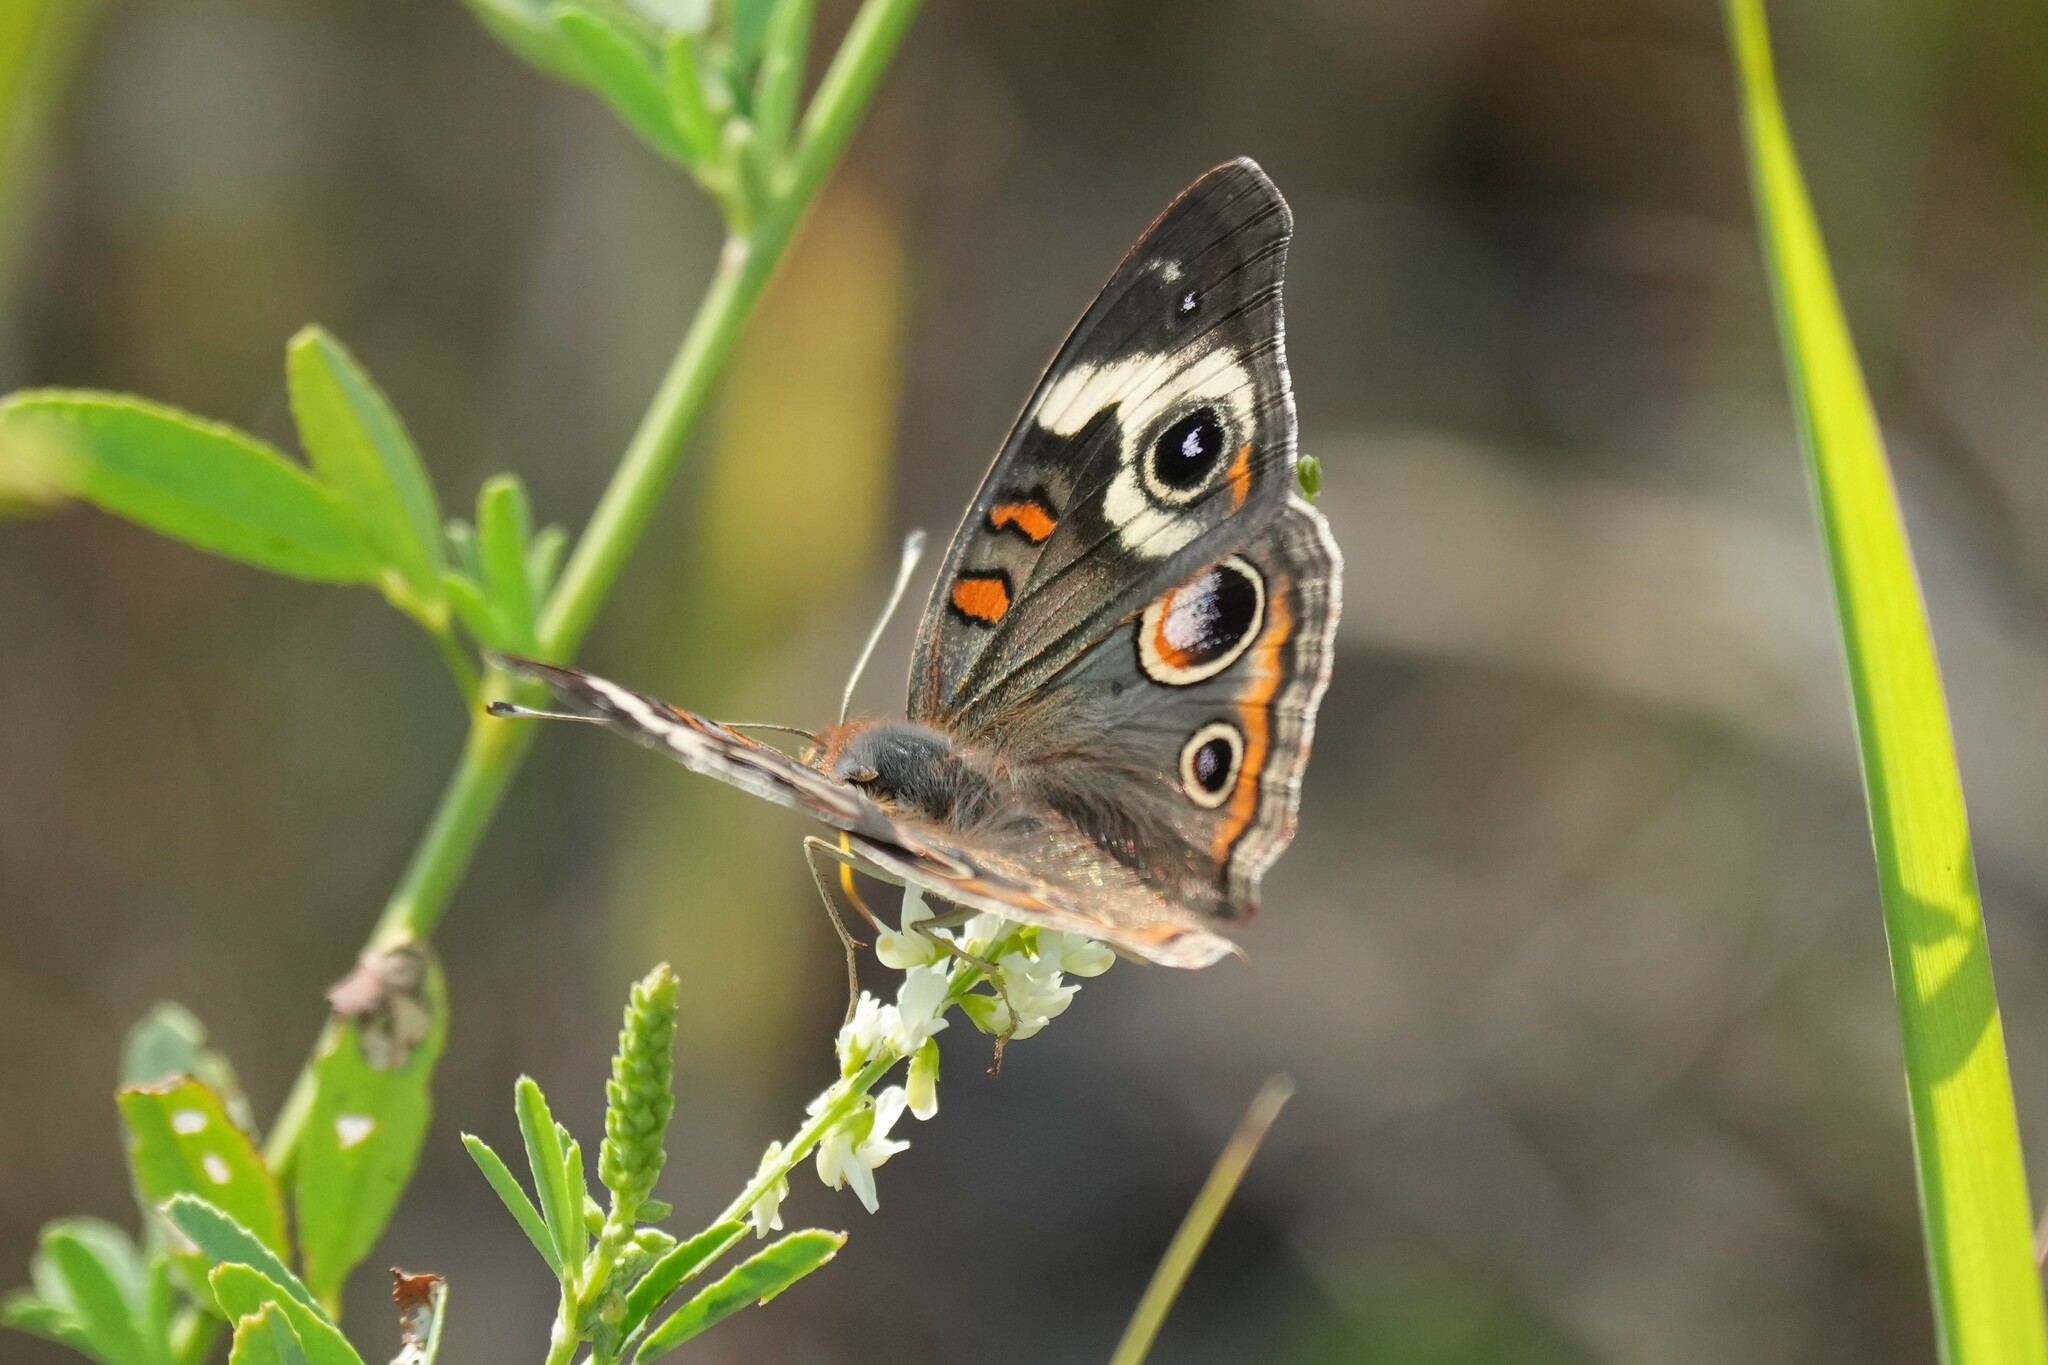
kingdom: Animalia
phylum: Arthropoda
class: Insecta
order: Lepidoptera
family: Nymphalidae
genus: Junonia
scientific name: Junonia coenia
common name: Common buckeye
